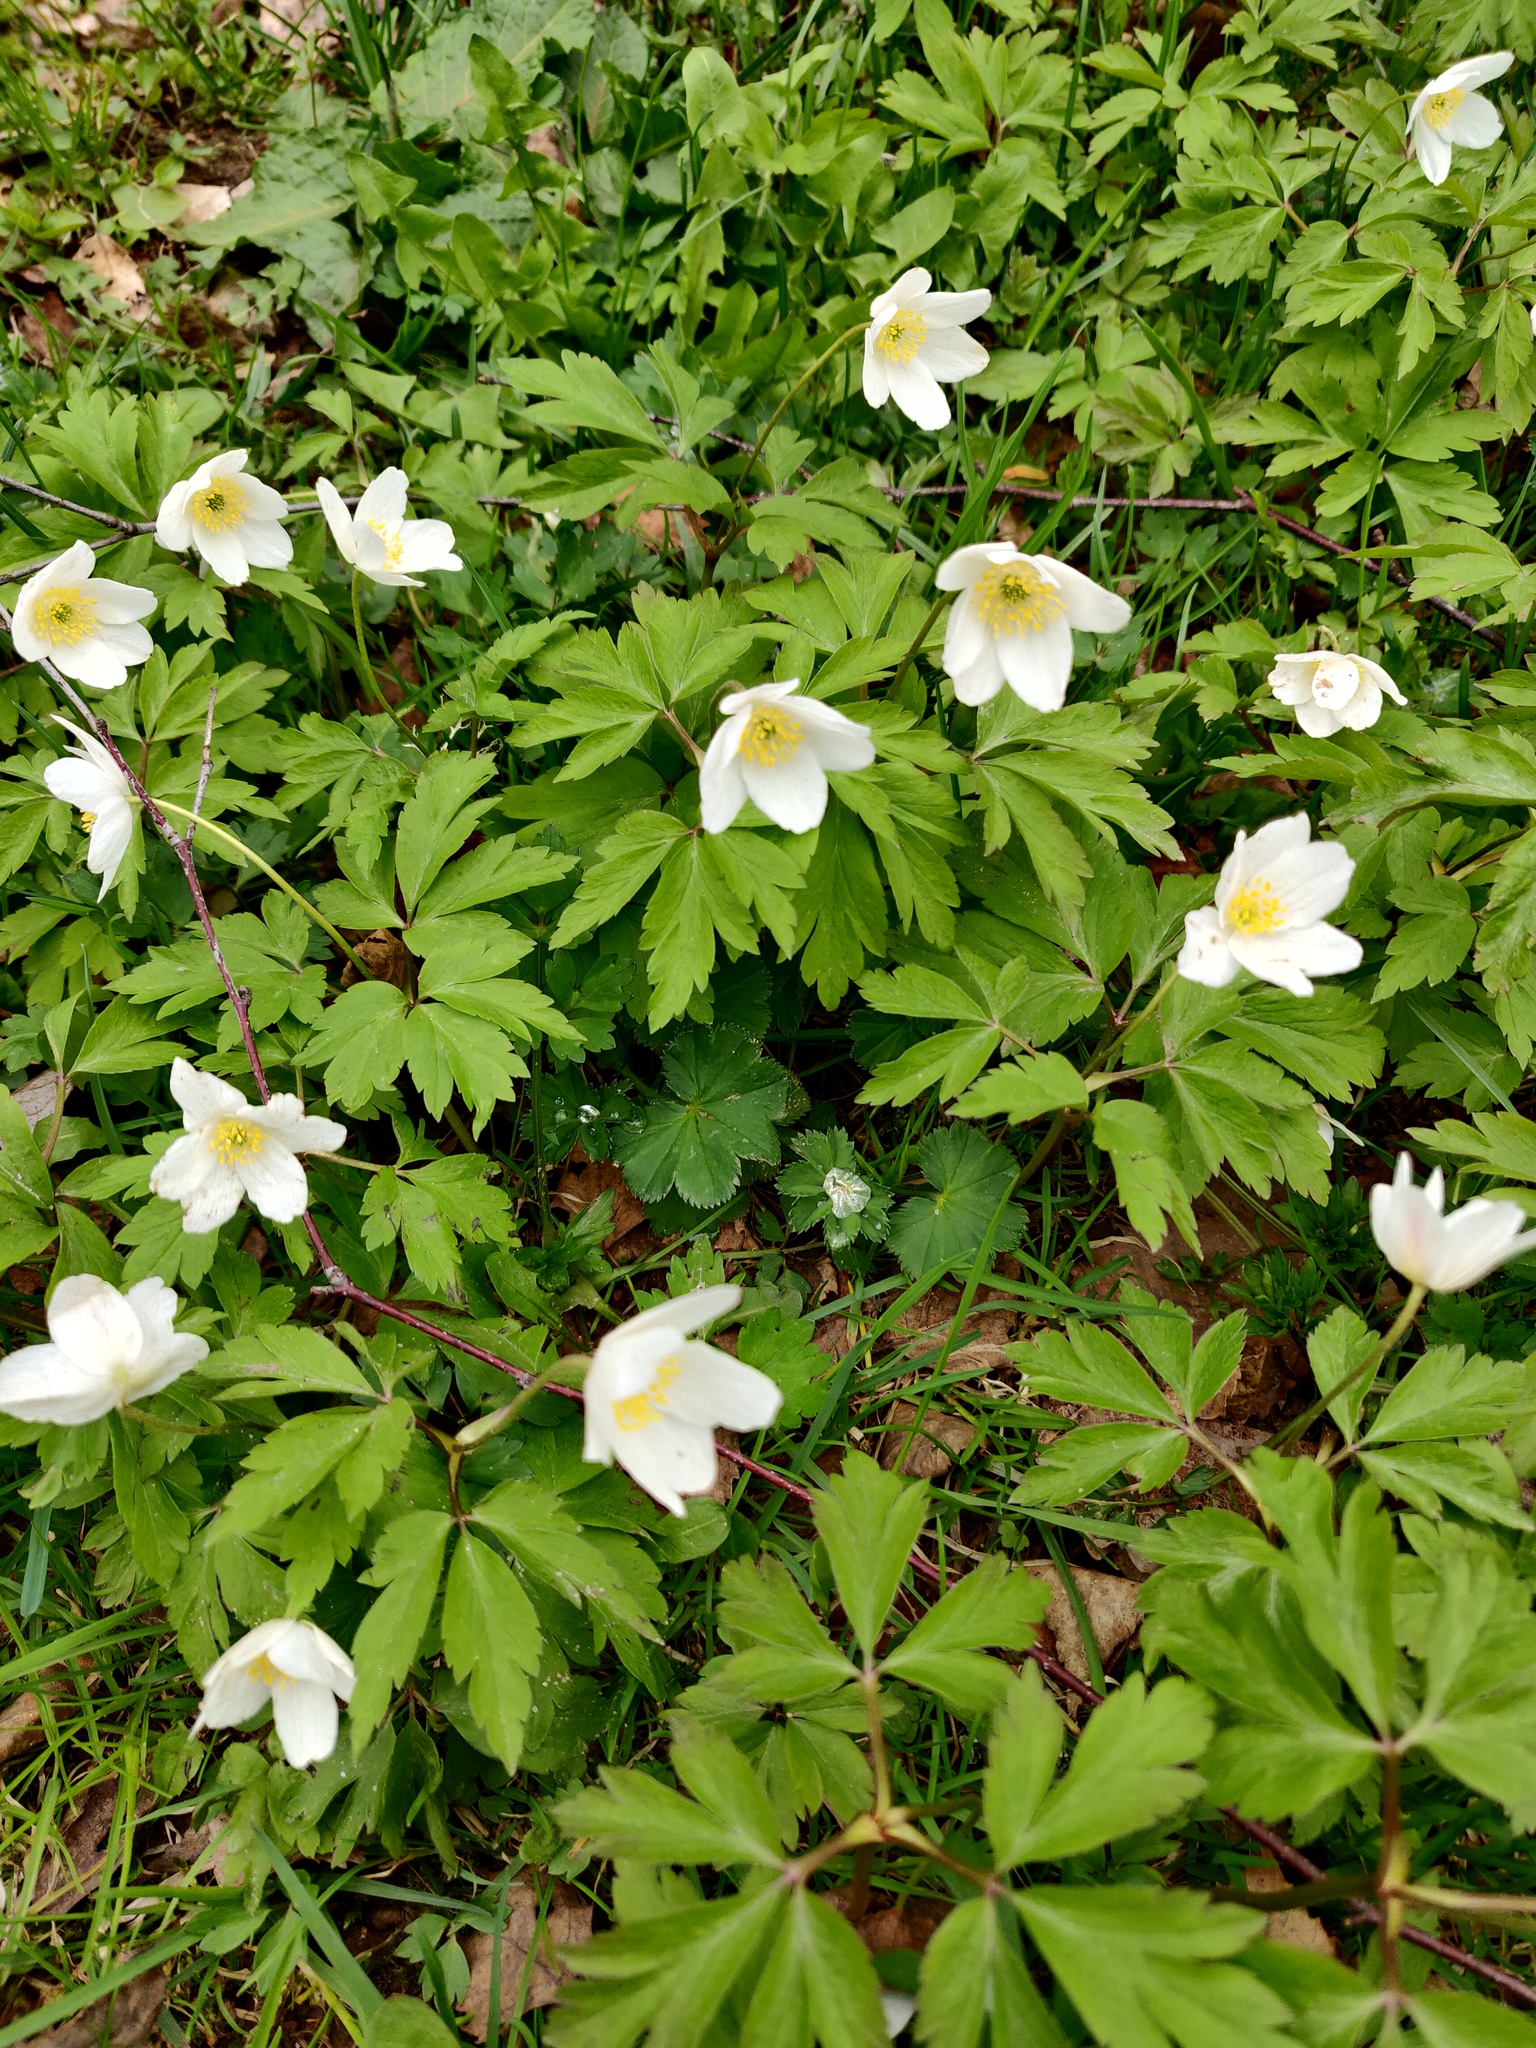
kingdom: Plantae
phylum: Tracheophyta
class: Magnoliopsida
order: Ranunculales
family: Ranunculaceae
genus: Anemone
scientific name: Anemone nemorosa
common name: Wood anemone
